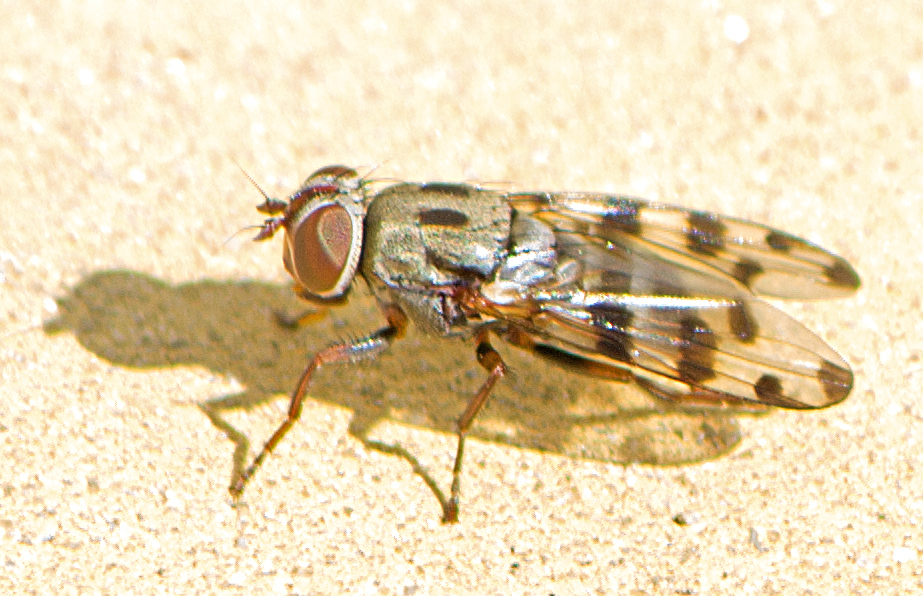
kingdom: Animalia
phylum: Arthropoda
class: Insecta
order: Diptera
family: Ulidiidae
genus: Ceroxys
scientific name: Ceroxys fraudulosa
